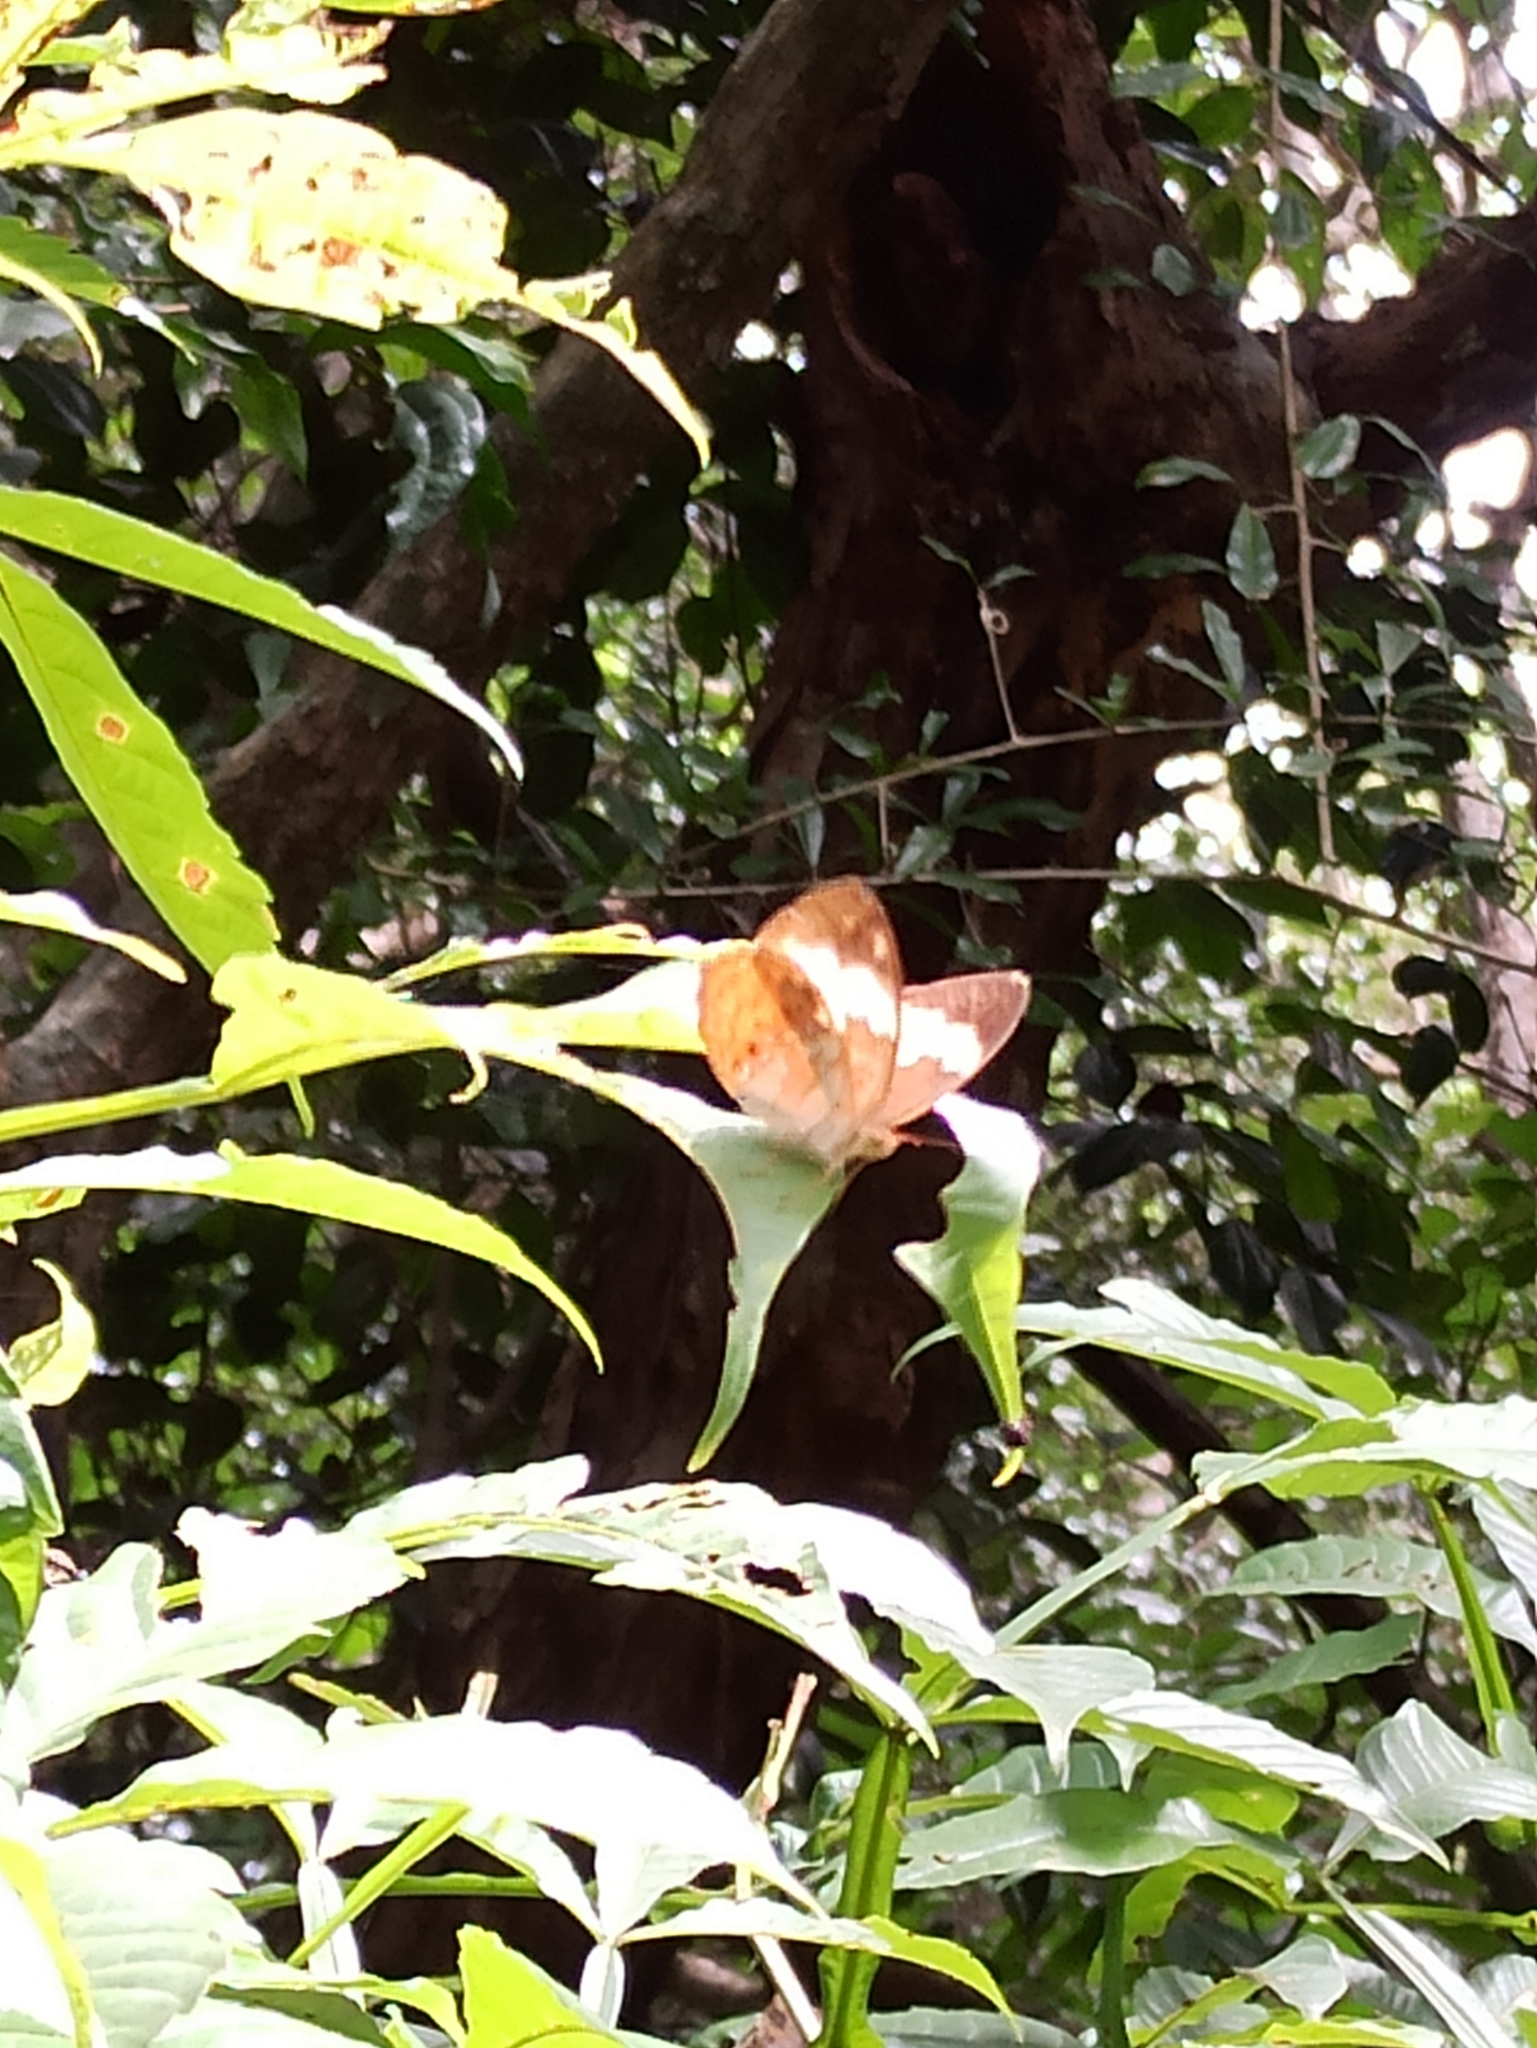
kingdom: Animalia
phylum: Arthropoda
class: Insecta
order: Lepidoptera
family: Nymphalidae
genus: Cupha
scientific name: Cupha erymanthis
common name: Rustic
